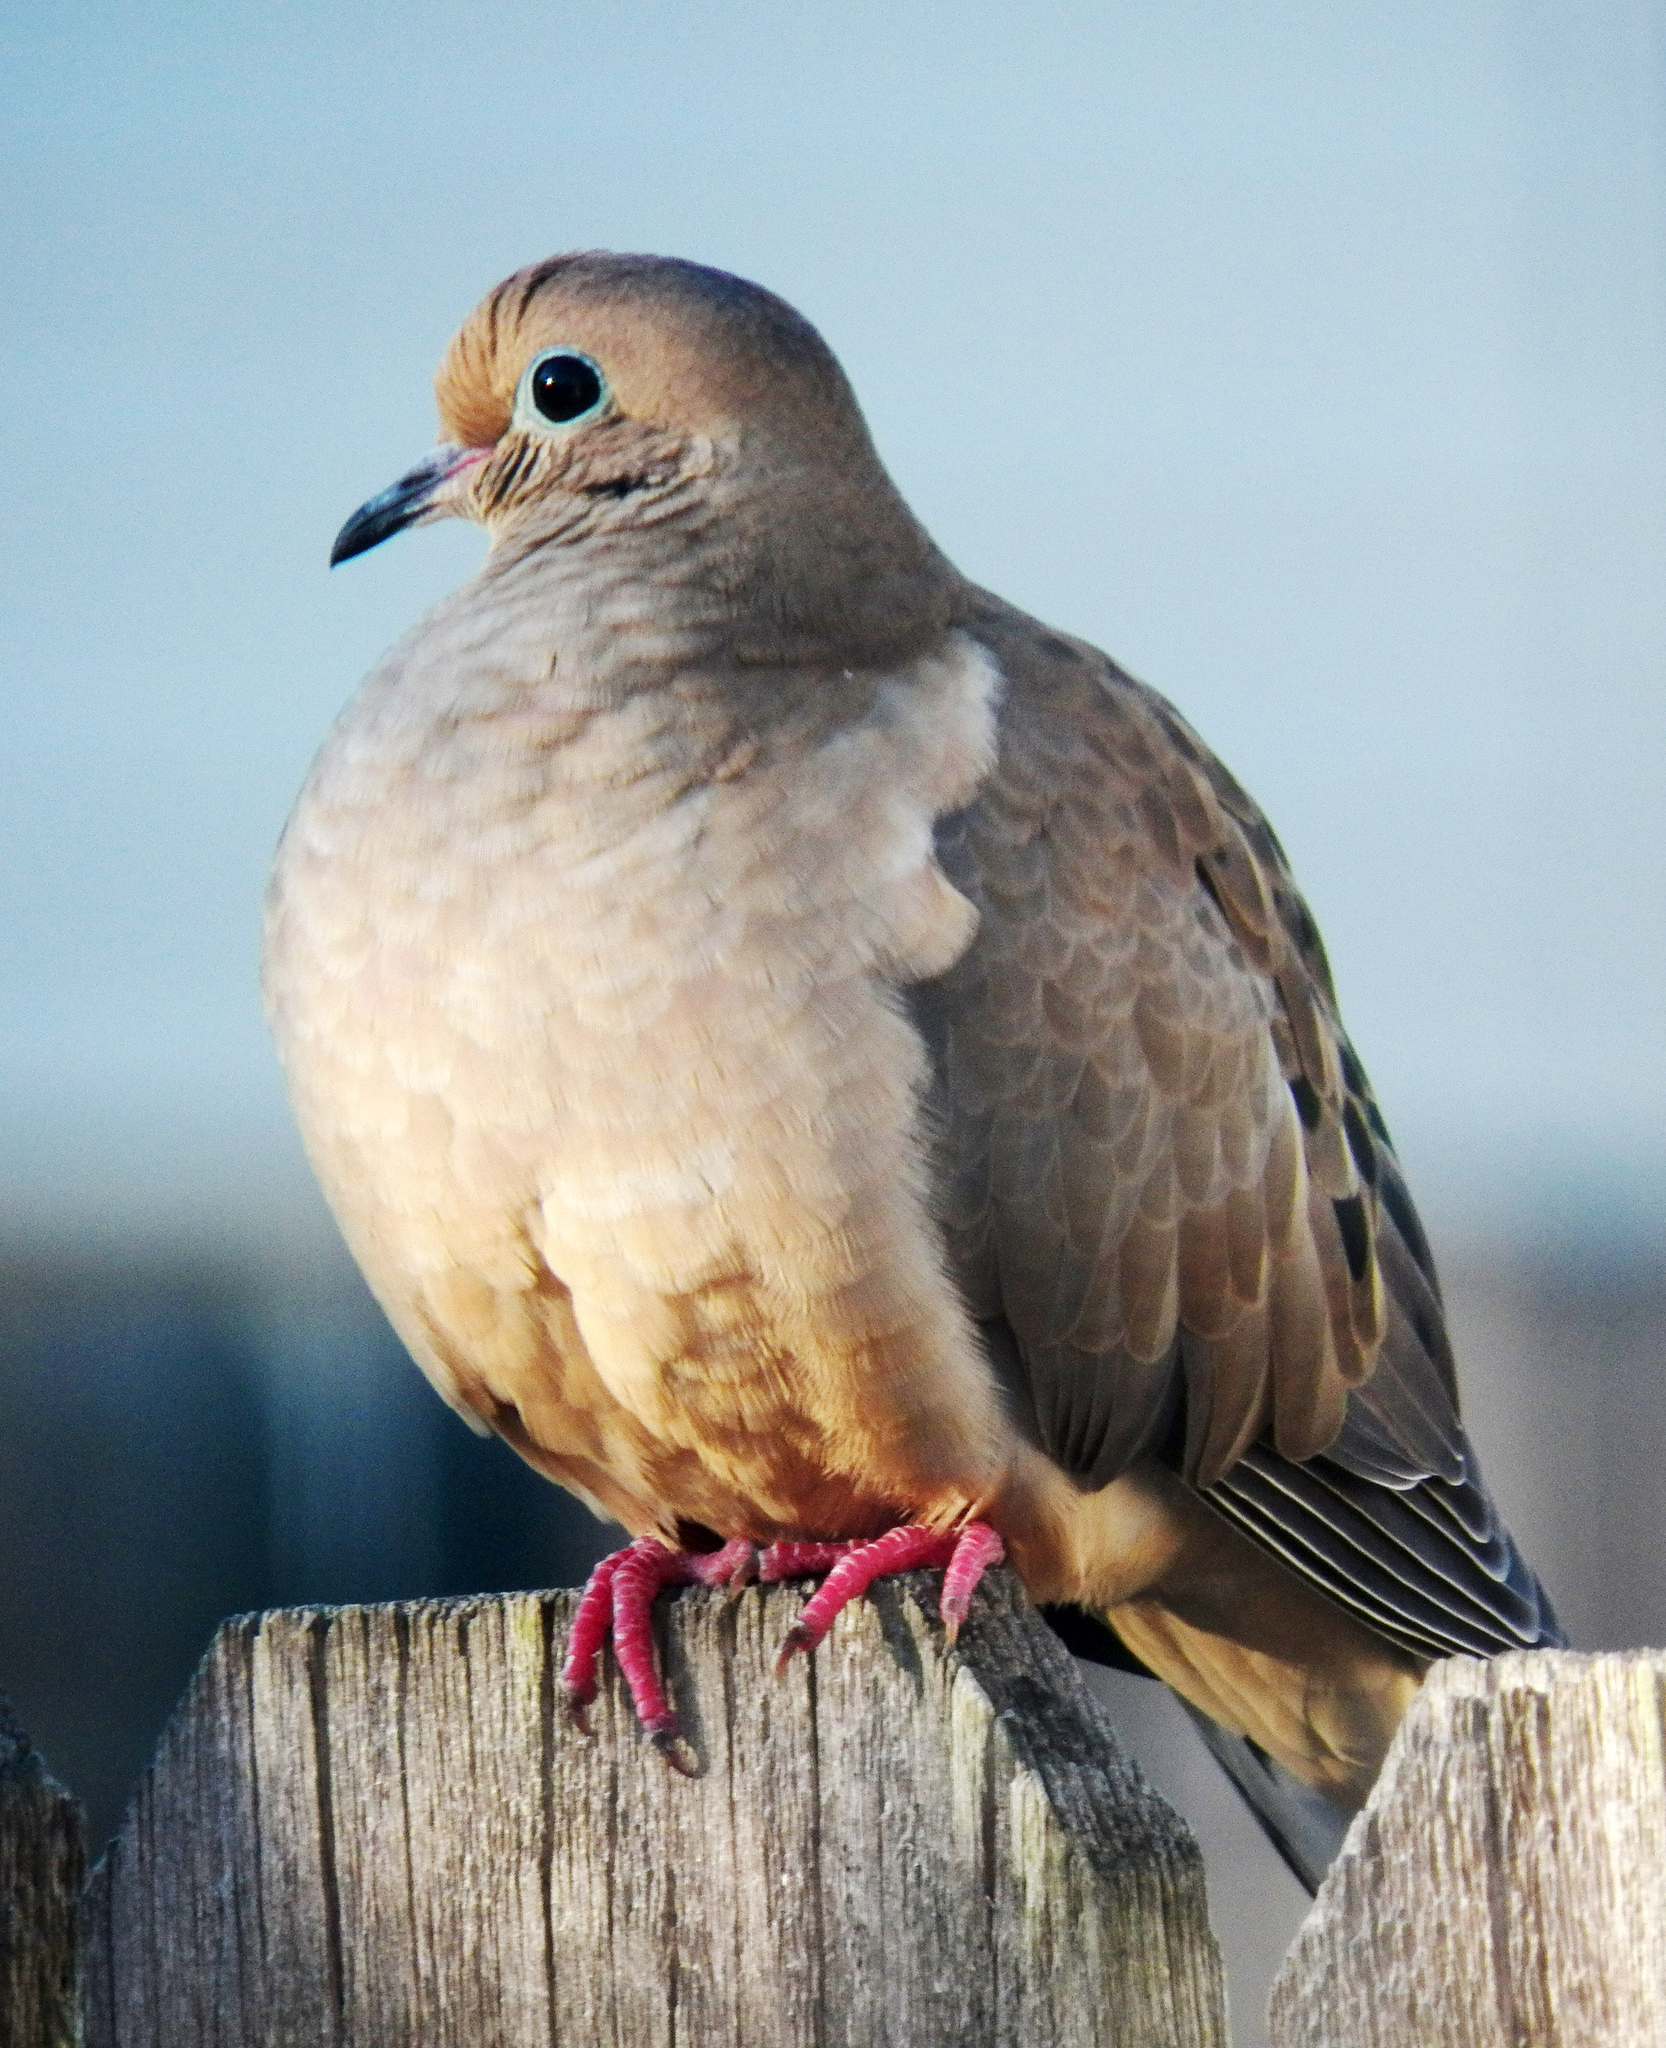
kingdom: Animalia
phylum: Chordata
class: Aves
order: Columbiformes
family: Columbidae
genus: Zenaida
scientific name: Zenaida macroura
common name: Mourning dove
